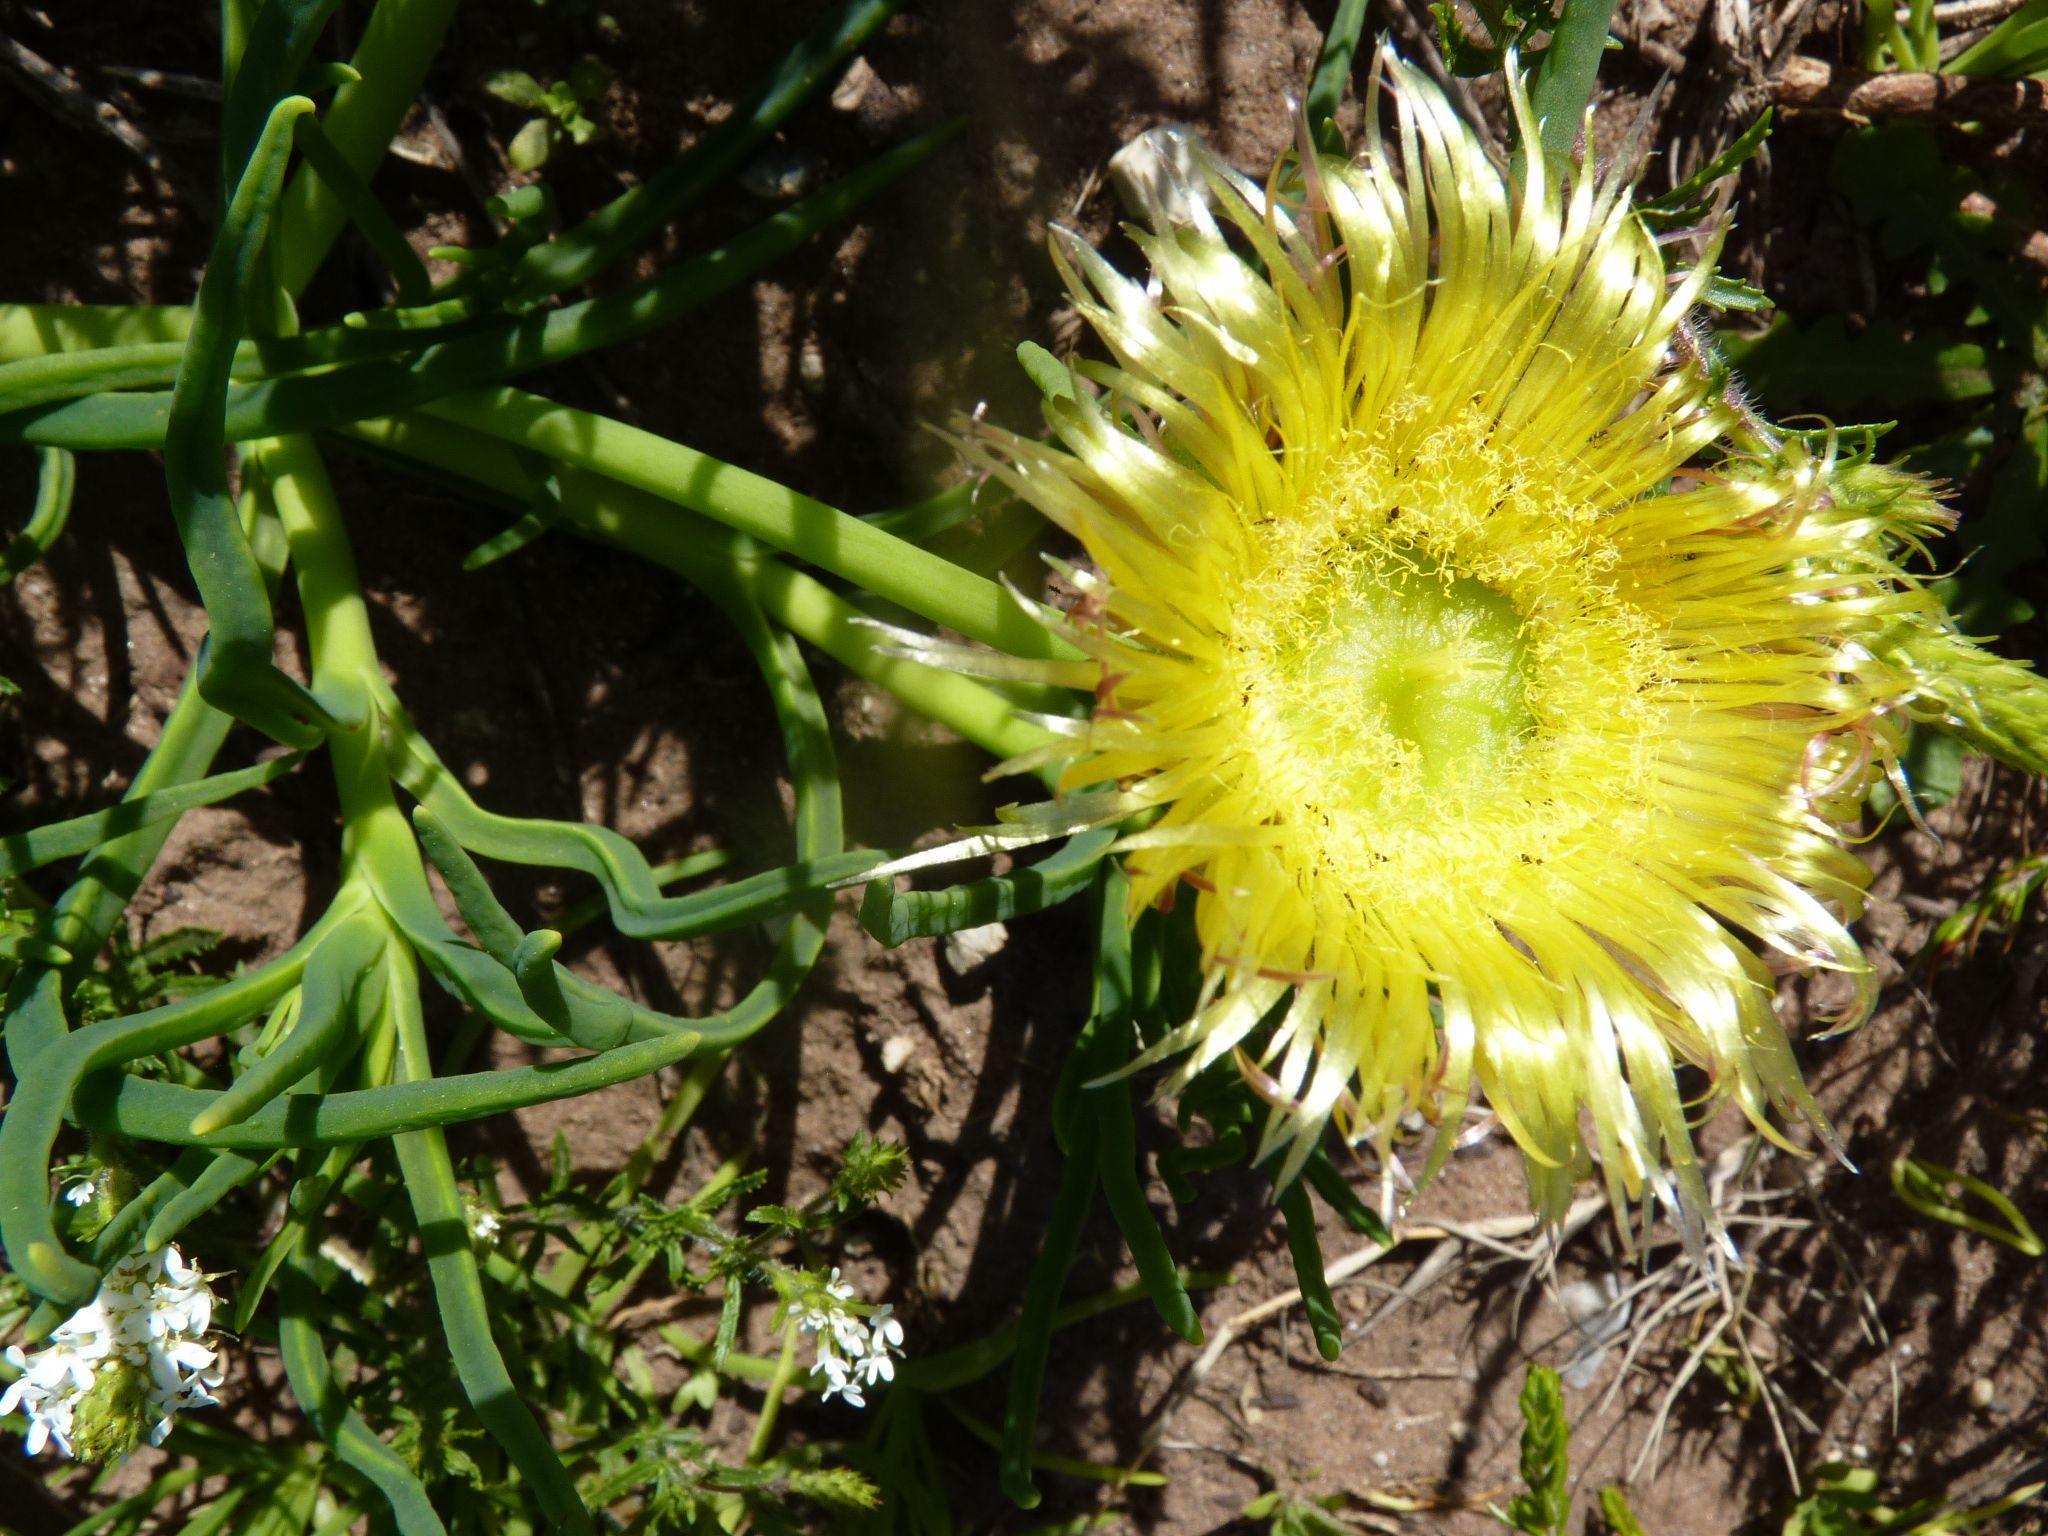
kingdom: Plantae
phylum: Tracheophyta
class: Magnoliopsida
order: Caryophyllales
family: Aizoaceae
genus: Conicosia
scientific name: Conicosia pugioniformis
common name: Narrow-leaved iceplant
